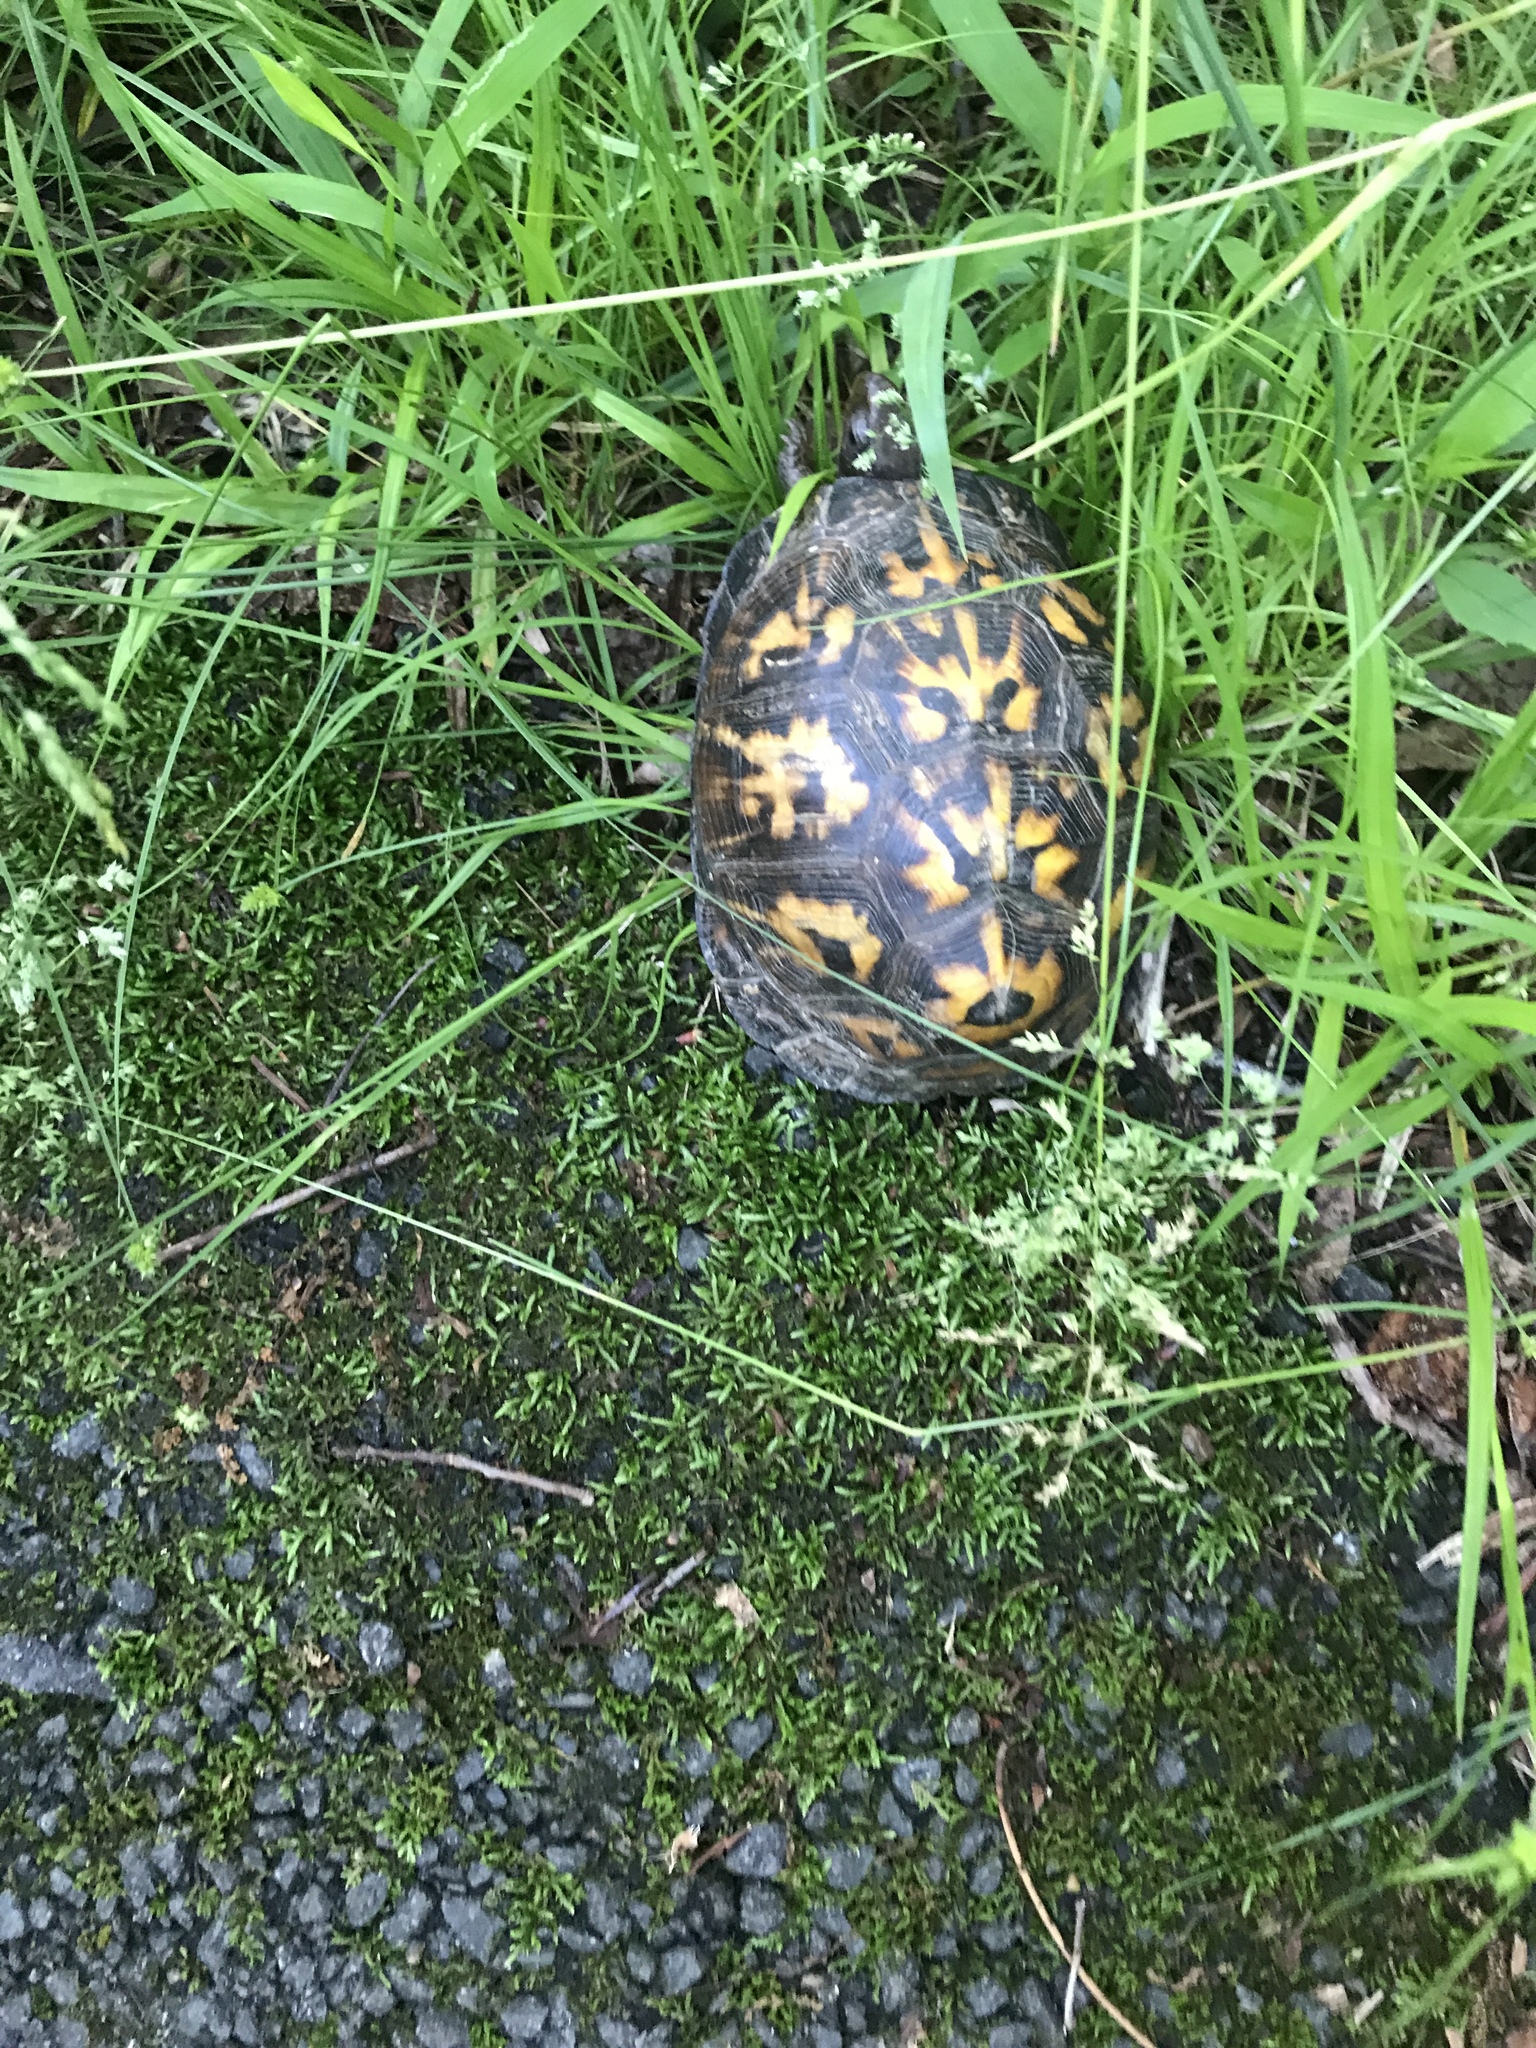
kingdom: Animalia
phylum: Chordata
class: Testudines
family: Emydidae
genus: Terrapene
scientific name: Terrapene carolina
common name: Common box turtle
